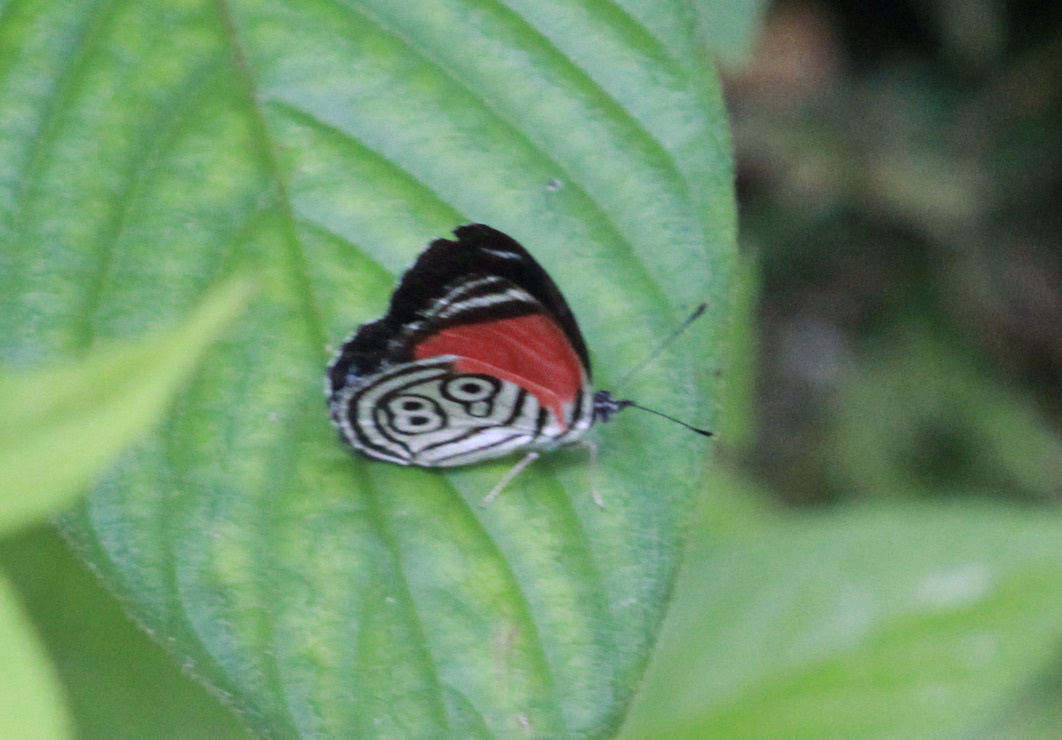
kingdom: Animalia
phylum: Arthropoda
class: Insecta
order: Lepidoptera
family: Nymphalidae
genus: Diaethria
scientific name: Diaethria clymena
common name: Widespread eighty-eight
